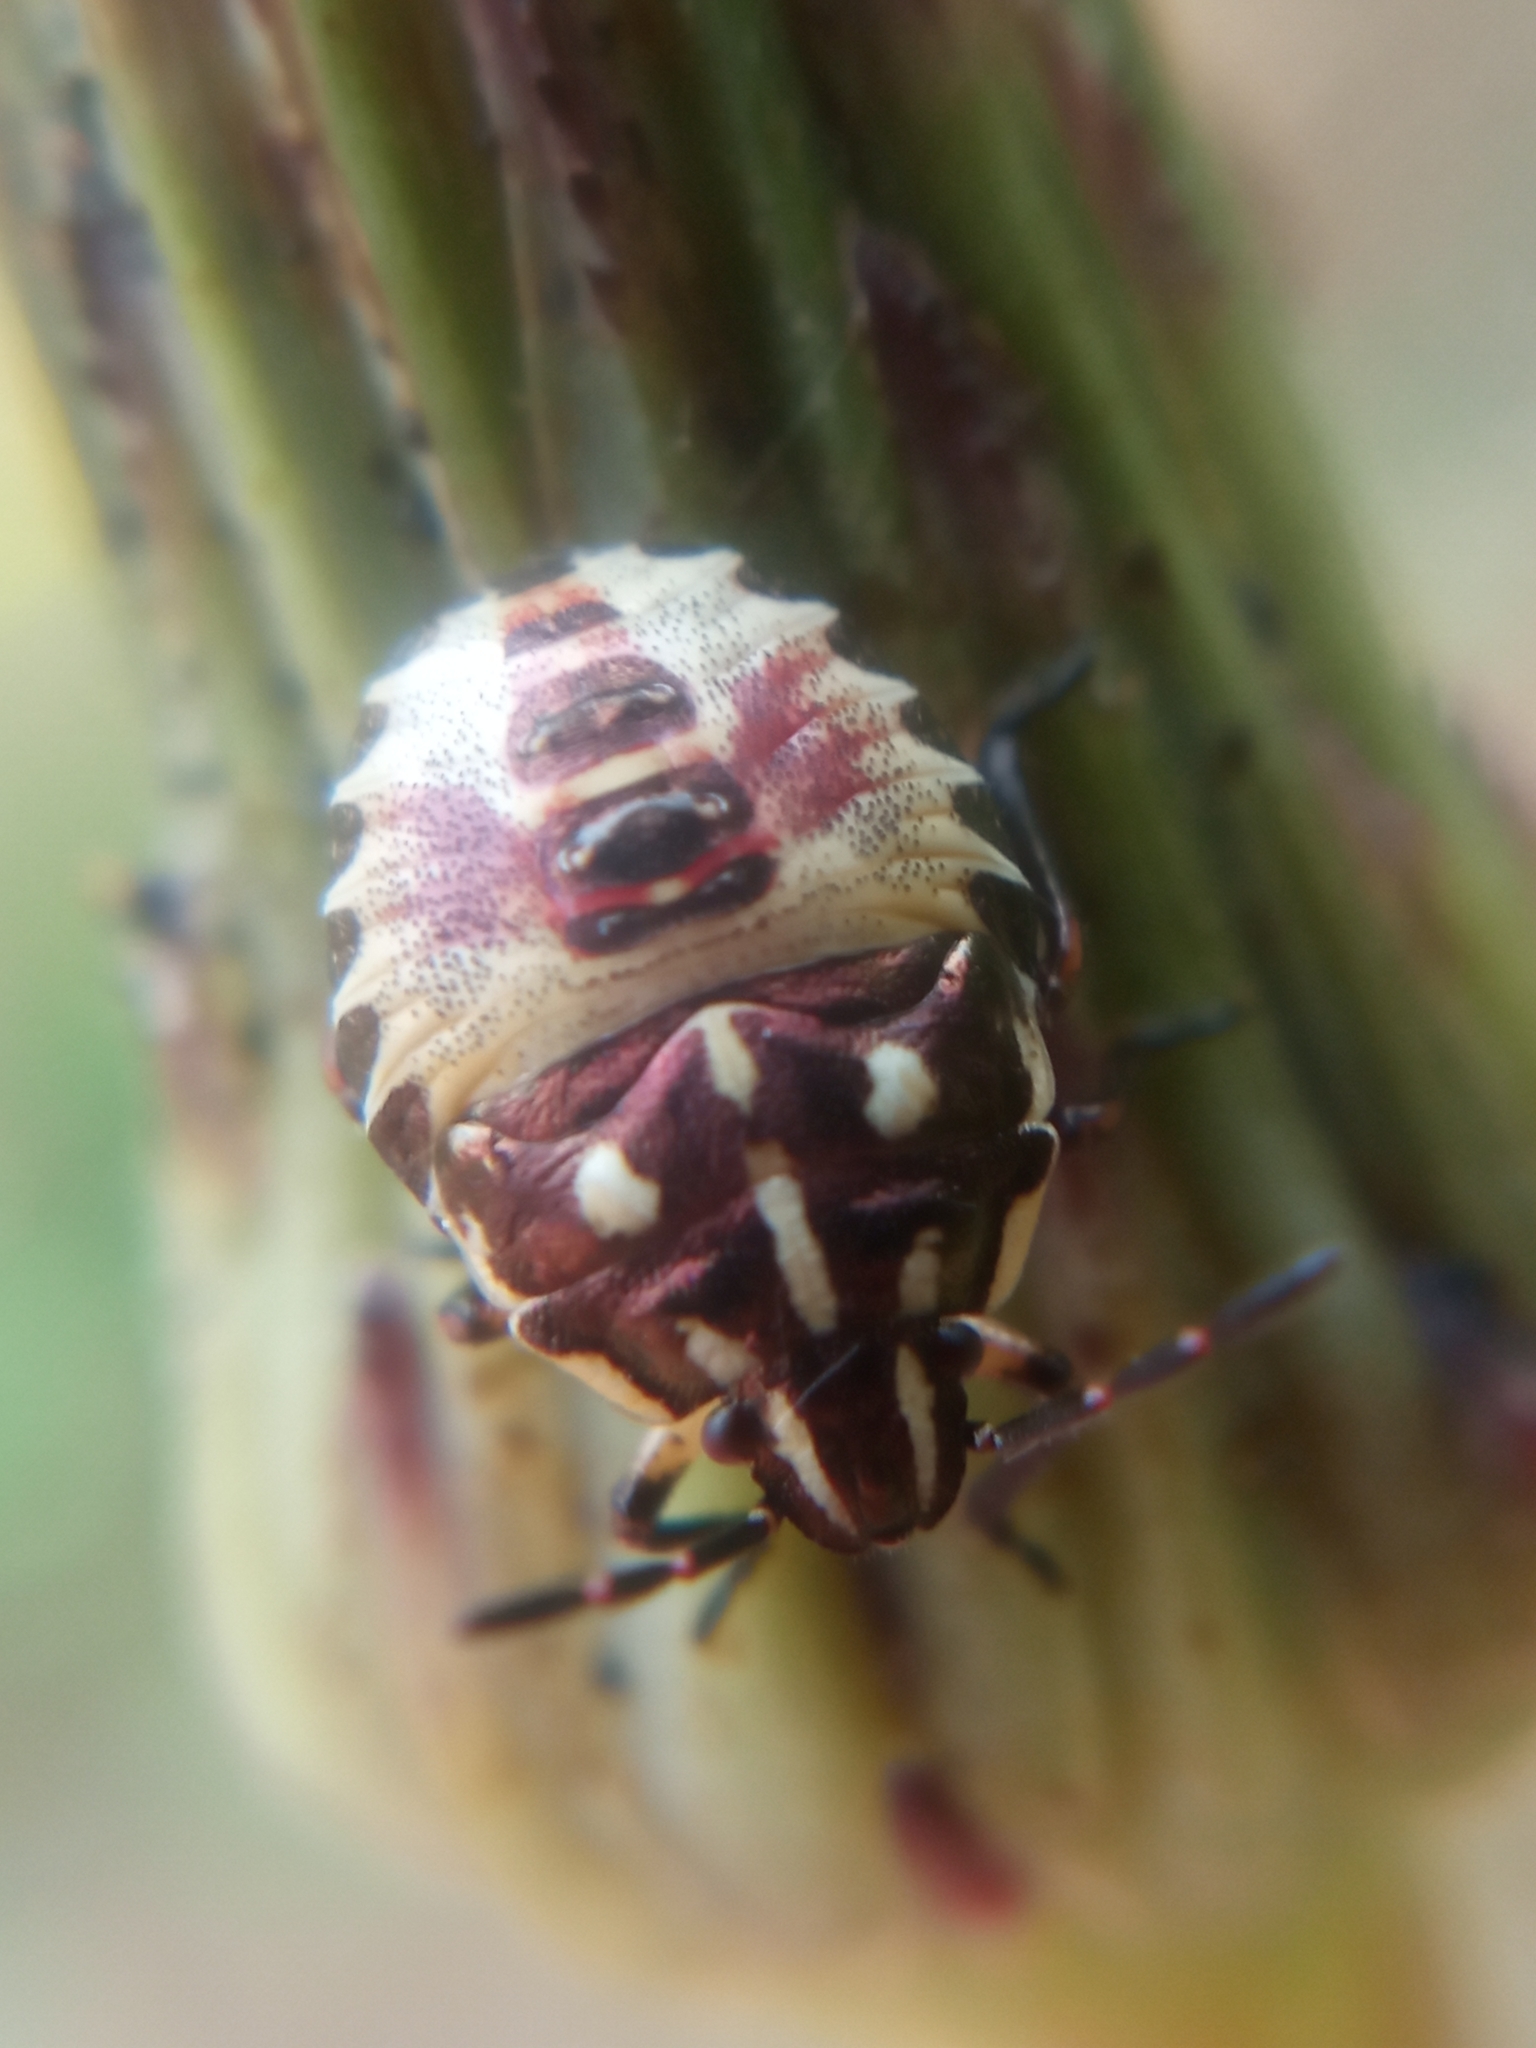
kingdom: Animalia
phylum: Arthropoda
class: Insecta
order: Hemiptera
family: Pentatomidae
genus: Carpocoris
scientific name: Carpocoris
